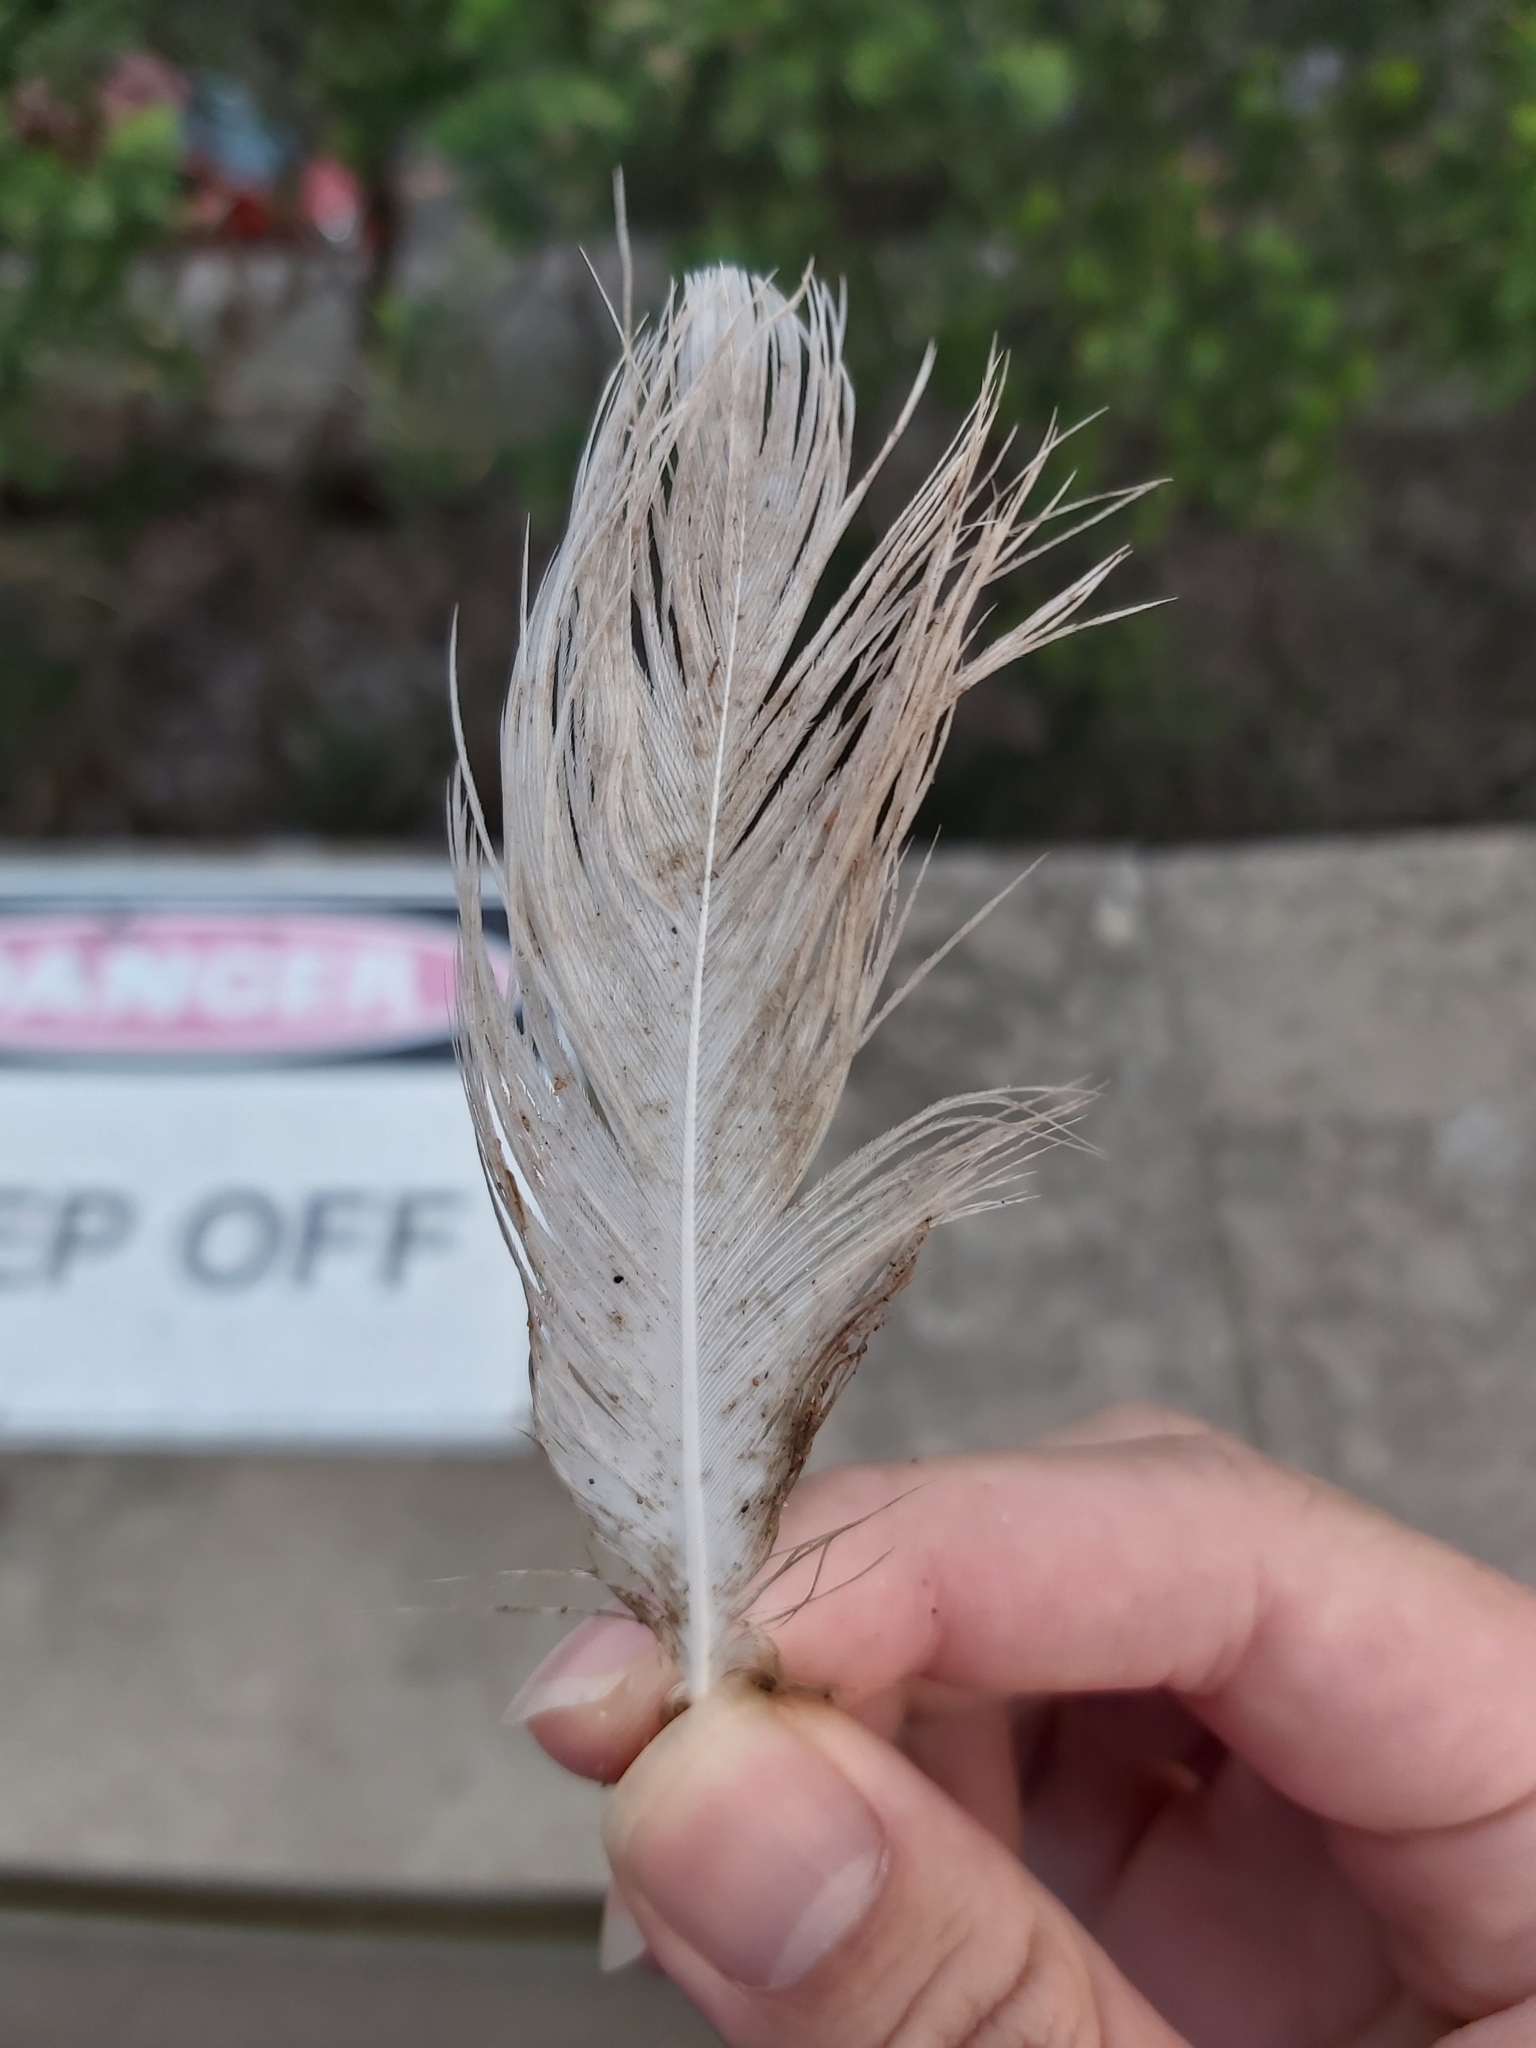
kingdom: Animalia
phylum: Chordata
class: Aves
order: Pelecaniformes
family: Threskiornithidae
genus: Threskiornis
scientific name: Threskiornis molucca
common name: Australian white ibis
